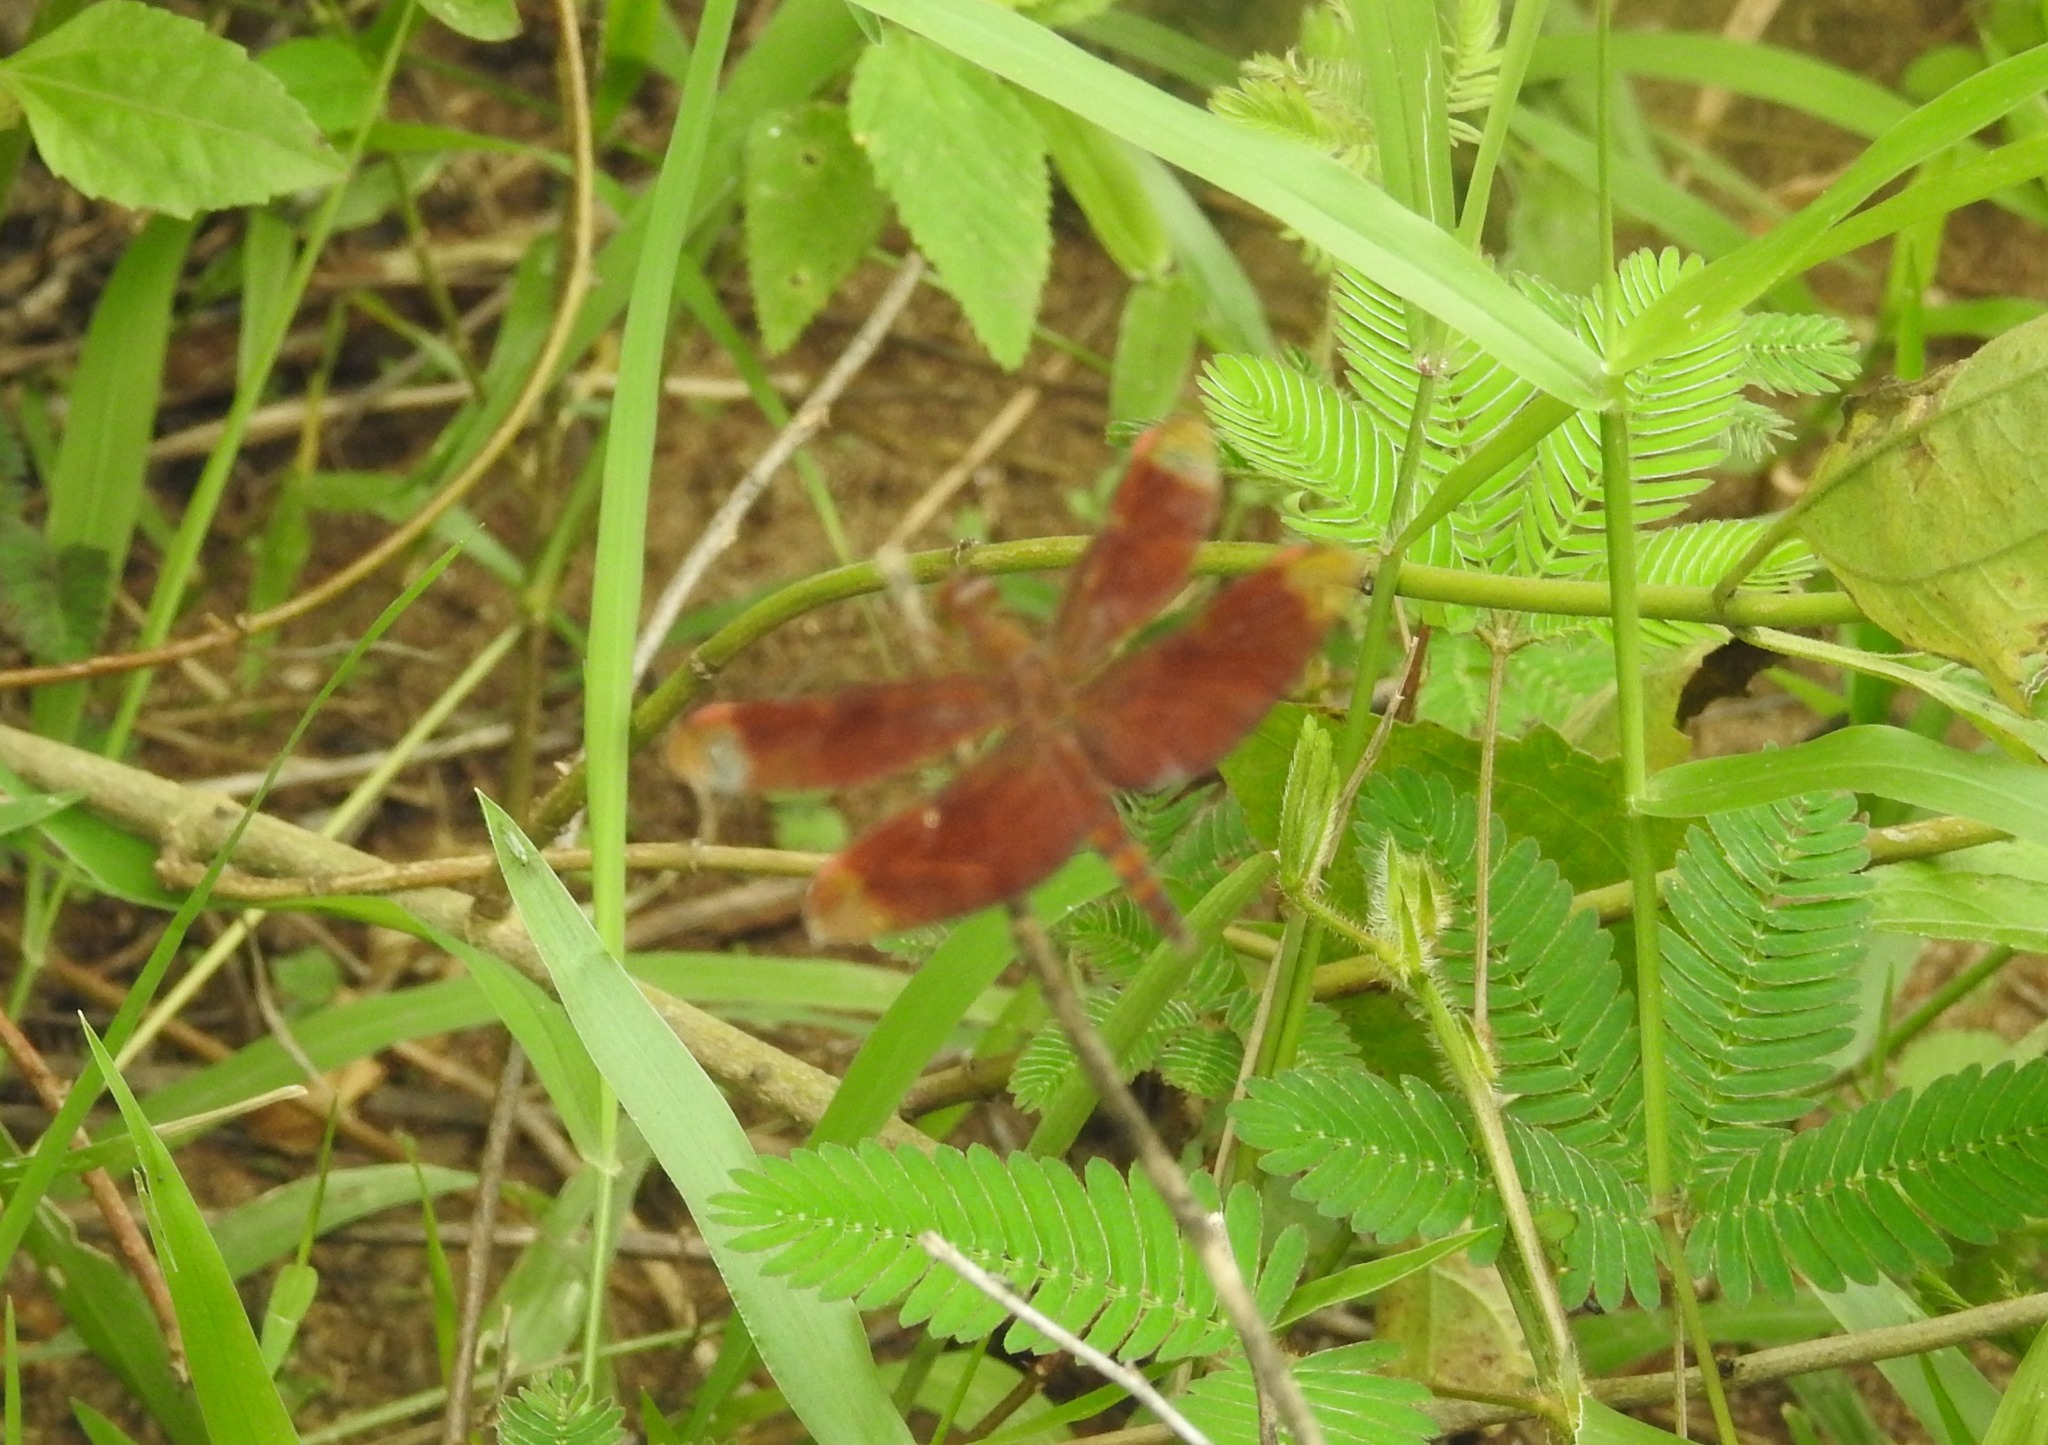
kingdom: Animalia
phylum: Arthropoda
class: Insecta
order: Odonata
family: Libellulidae
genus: Neurothemis
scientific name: Neurothemis fulvia
